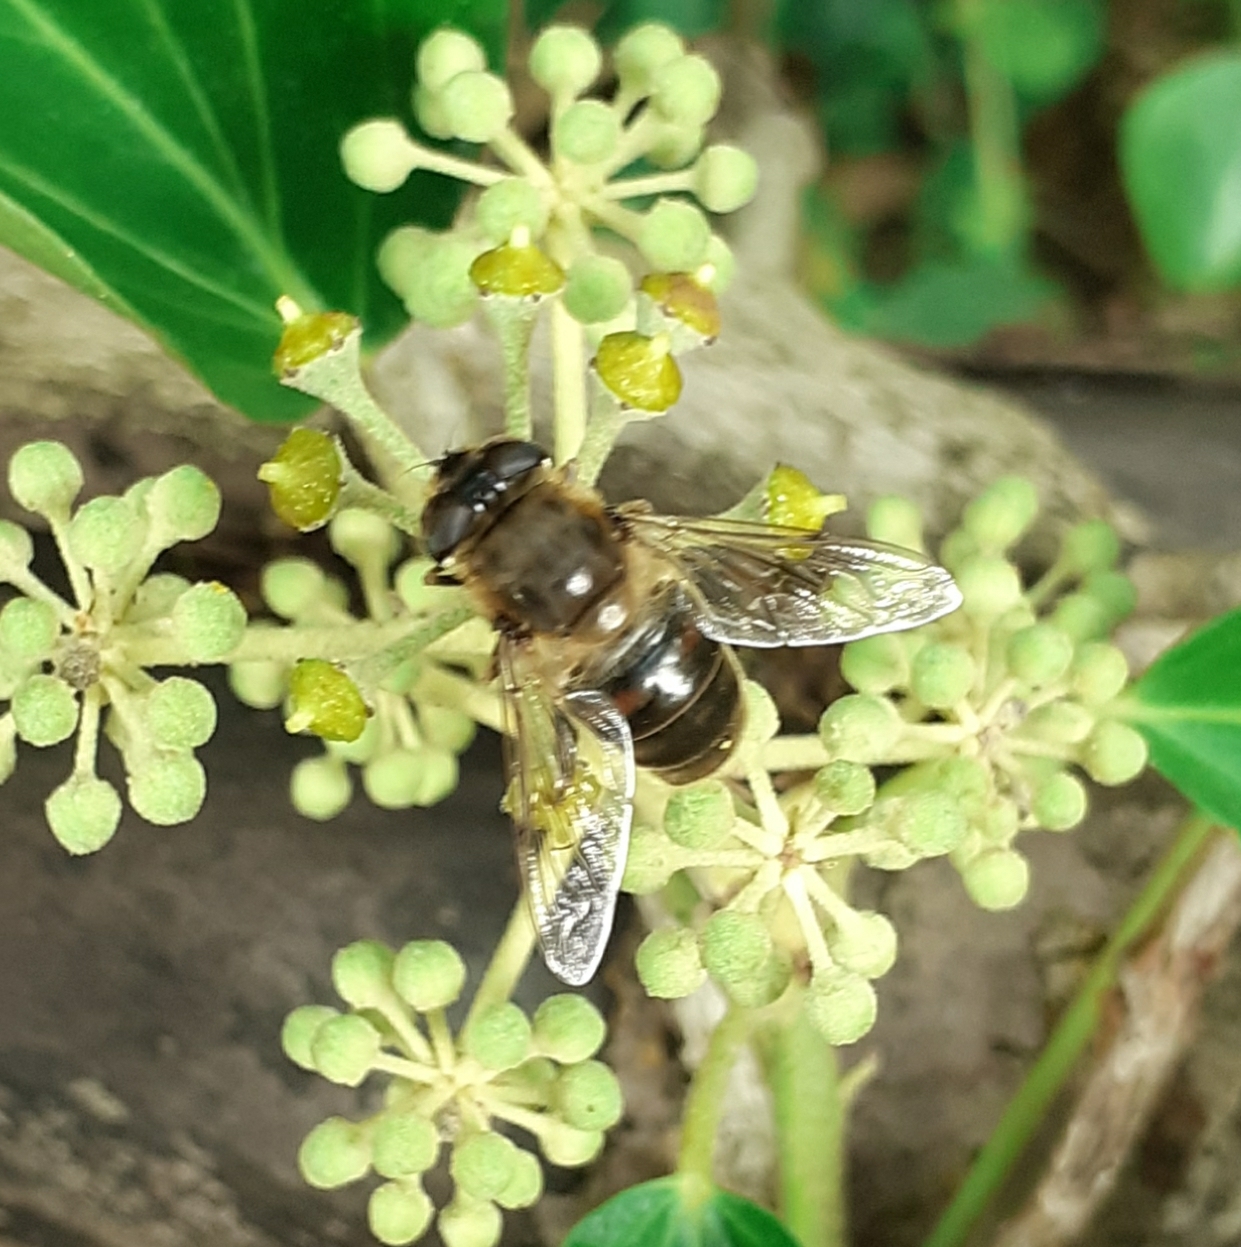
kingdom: Animalia
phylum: Arthropoda
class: Insecta
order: Diptera
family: Syrphidae
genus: Eristalis
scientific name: Eristalis tenax
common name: Drone fly
